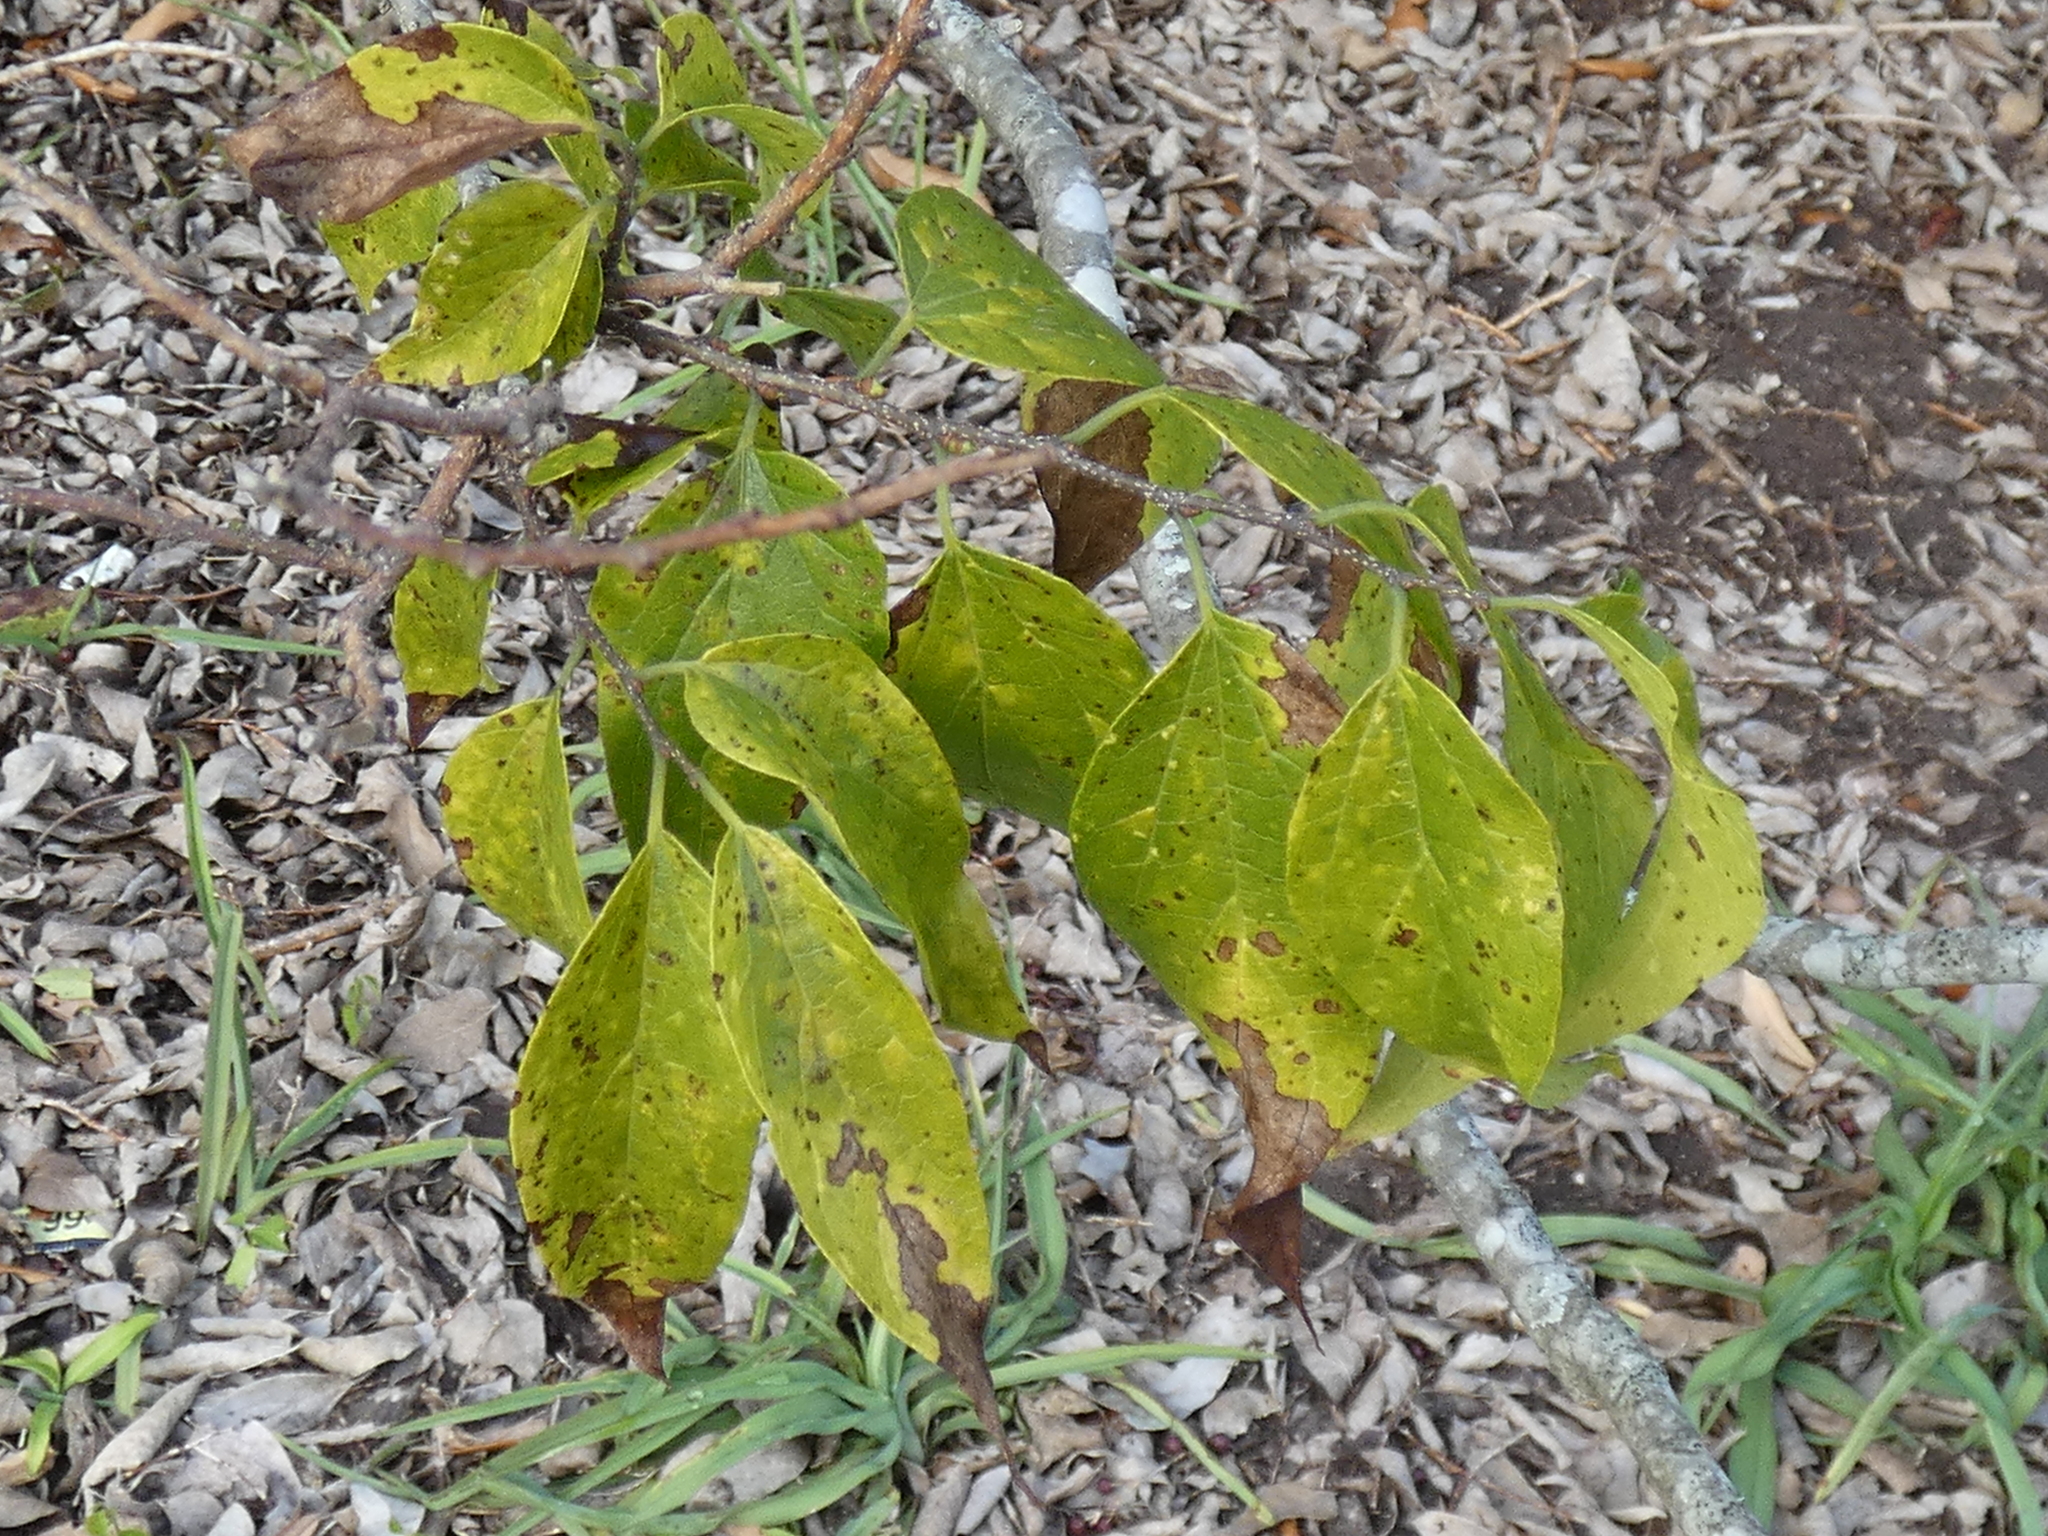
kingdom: Plantae
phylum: Tracheophyta
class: Magnoliopsida
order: Rosales
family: Cannabaceae
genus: Celtis
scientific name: Celtis laevigata
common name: Sugarberry
